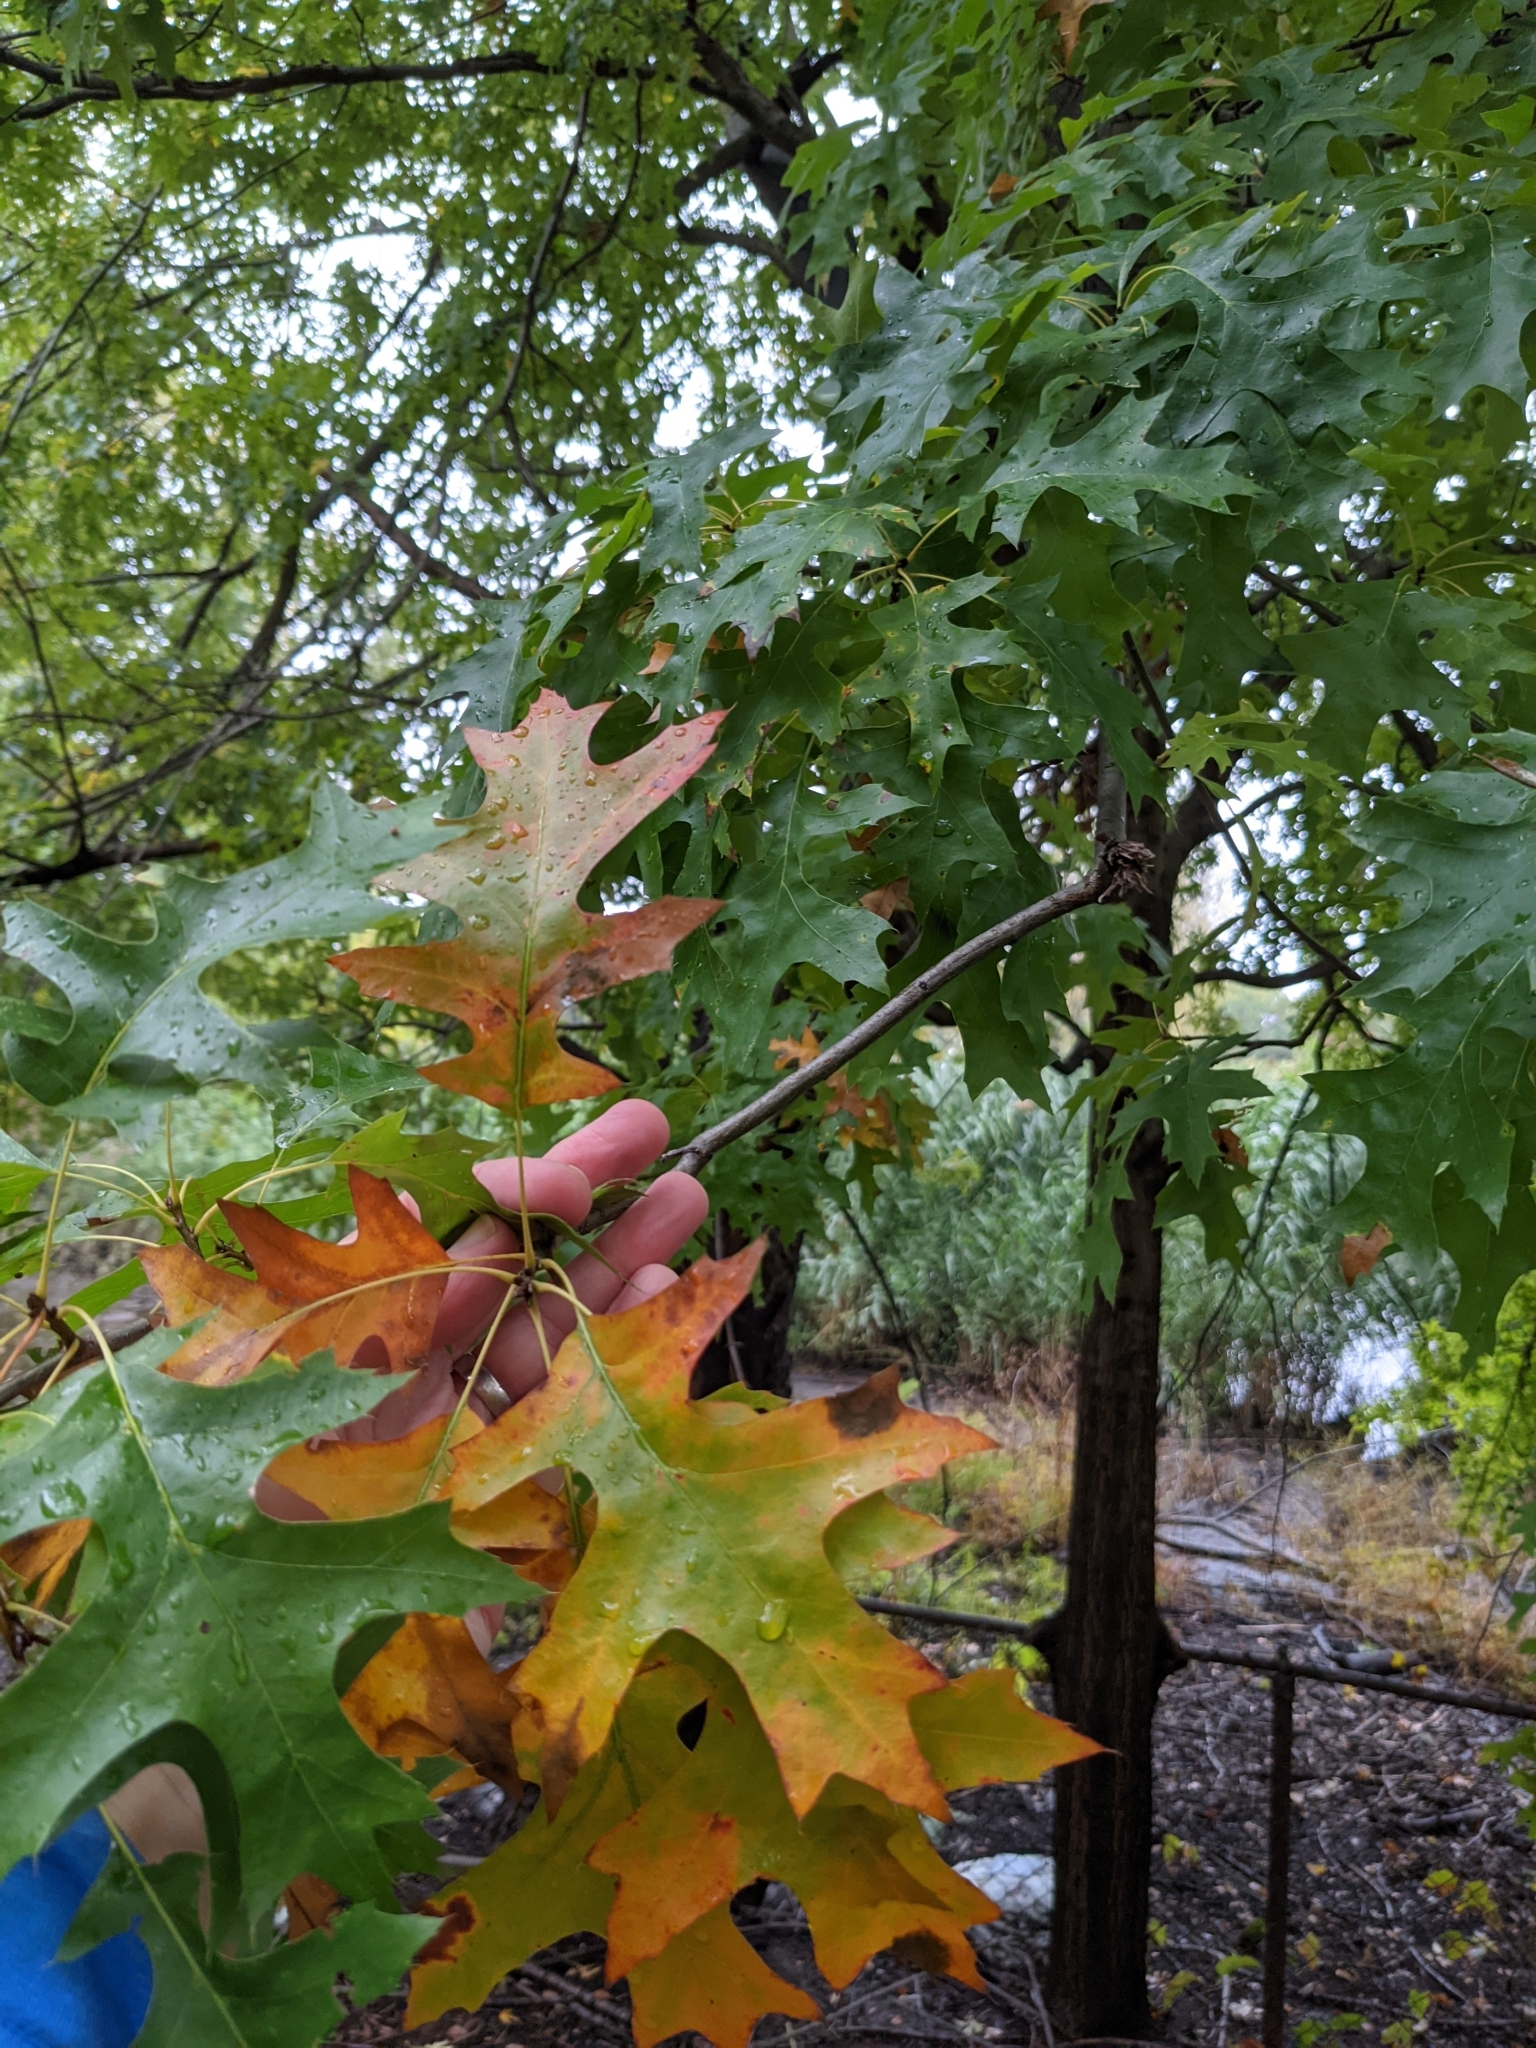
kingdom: Plantae
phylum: Tracheophyta
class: Magnoliopsida
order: Fagales
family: Fagaceae
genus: Quercus
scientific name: Quercus palustris
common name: Pin oak
